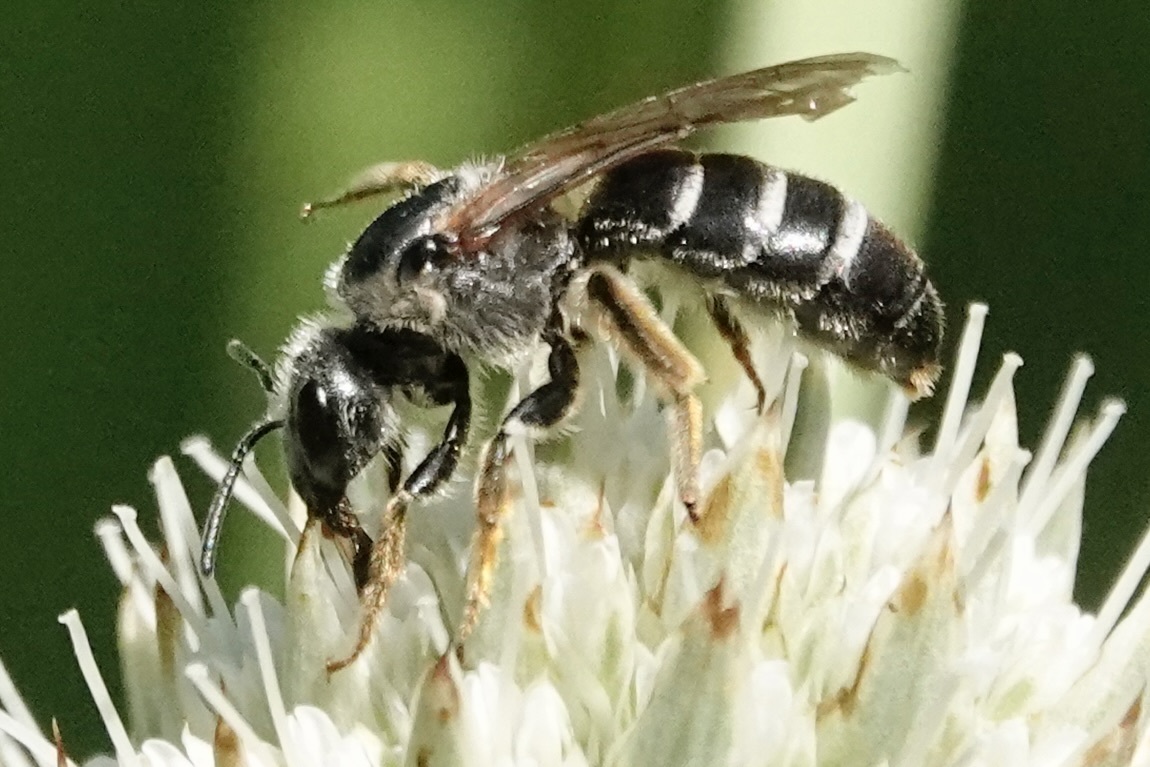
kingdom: Animalia
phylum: Arthropoda
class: Insecta
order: Hymenoptera
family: Halictidae
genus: Halictus
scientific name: Halictus rubicundus
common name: Orange-legged furrow bee
